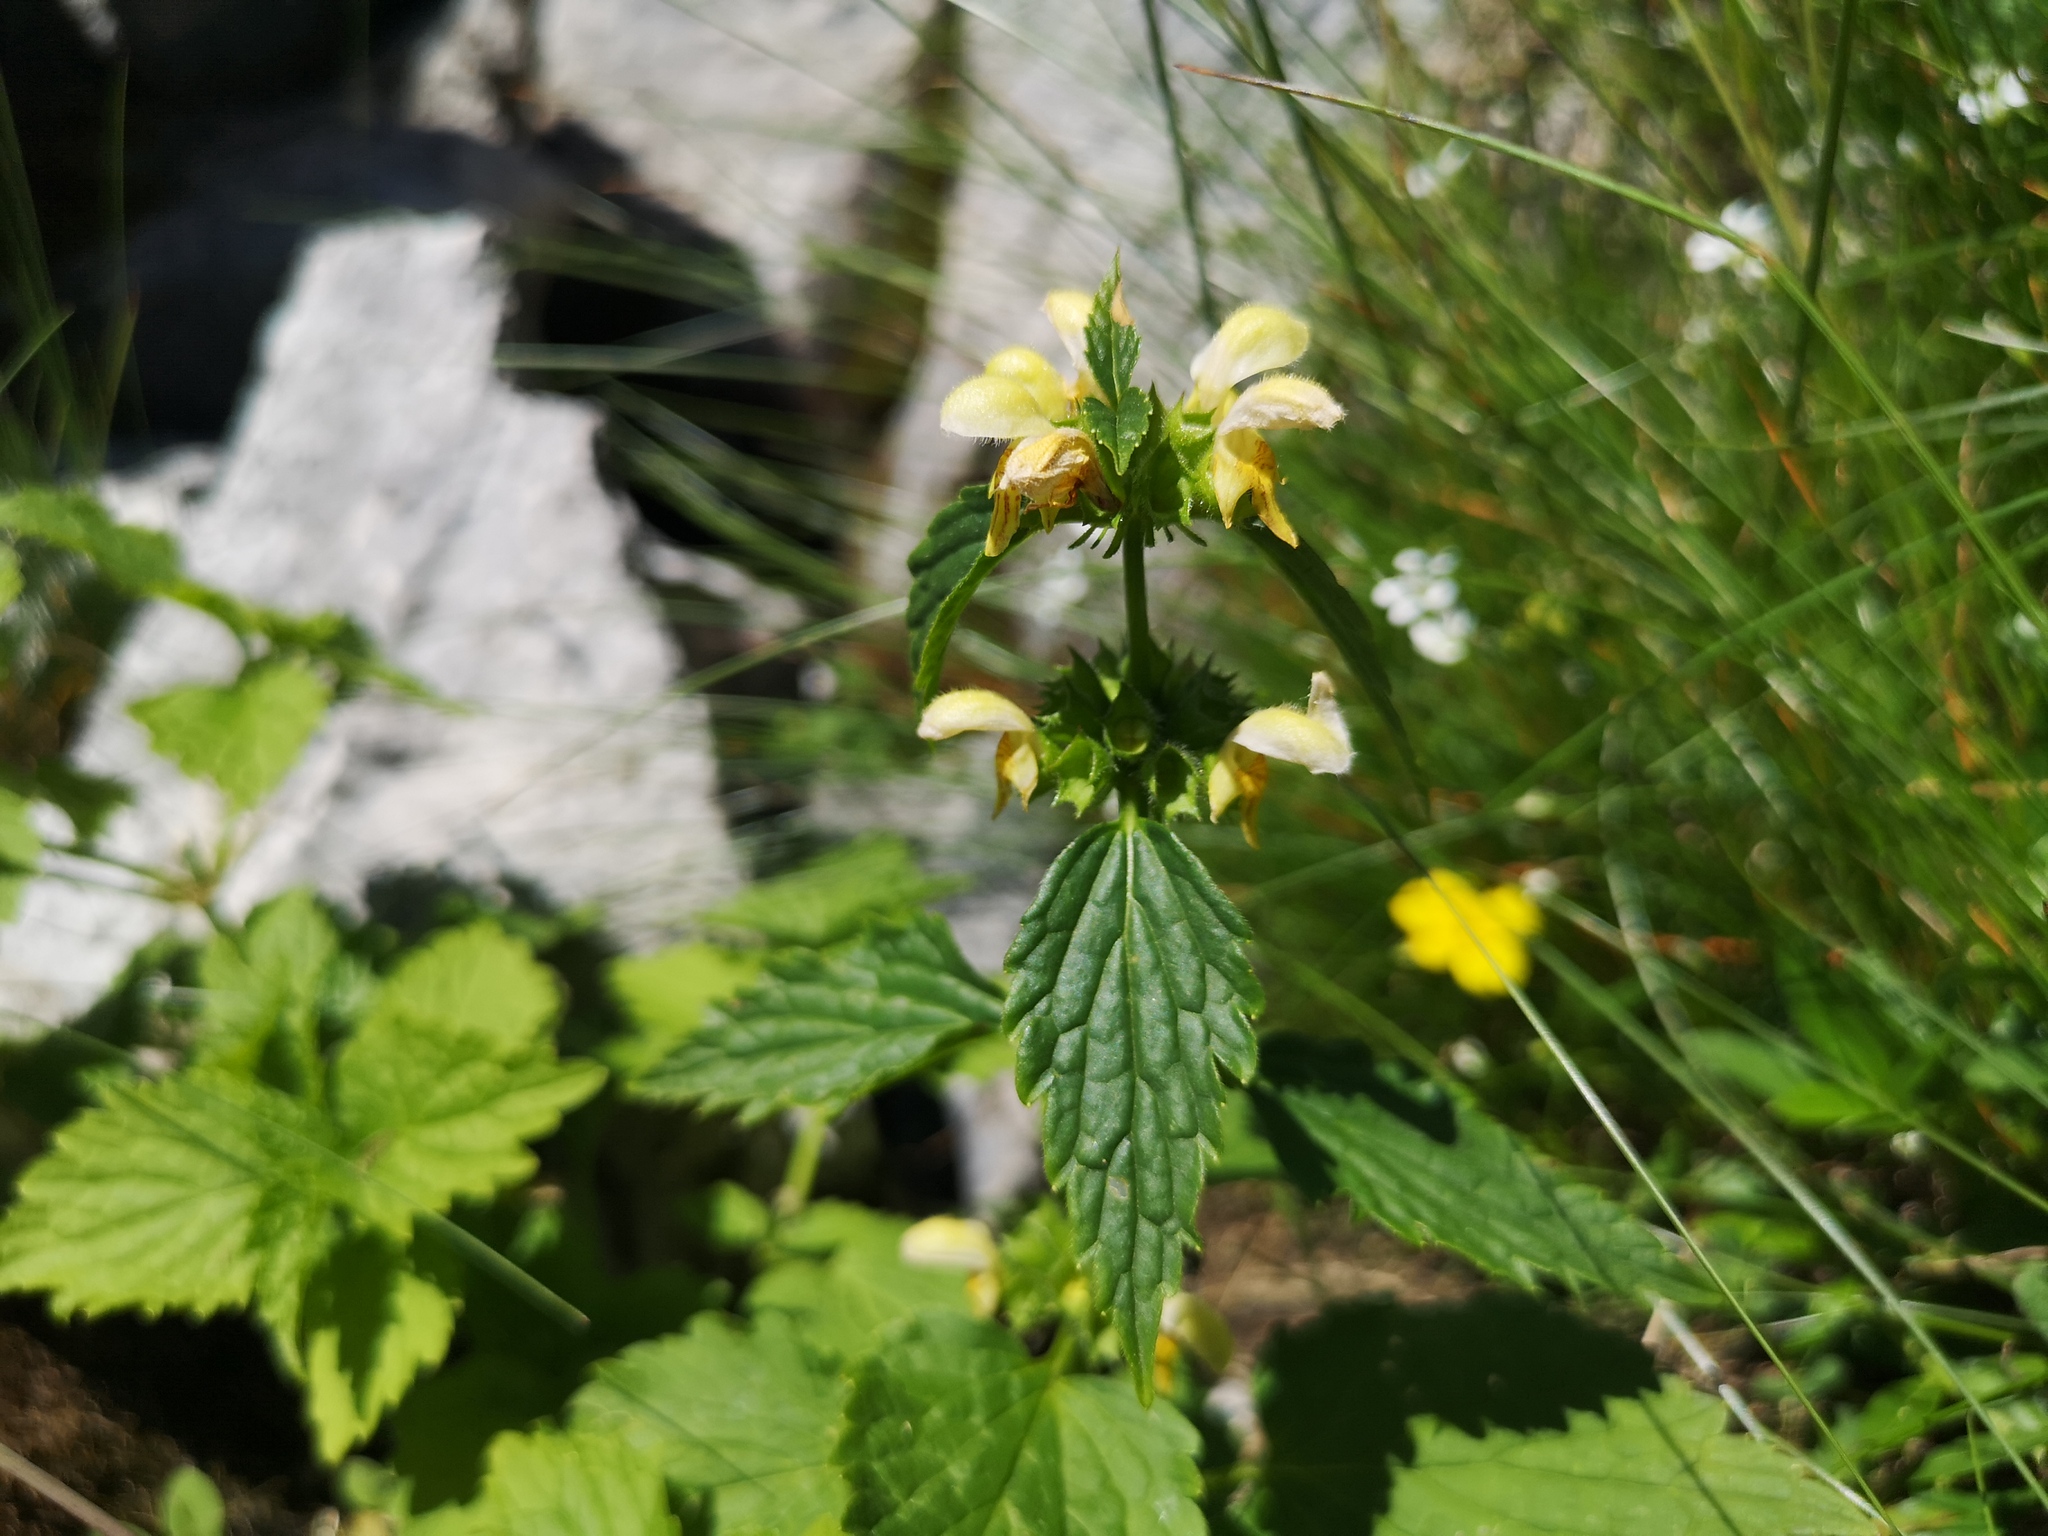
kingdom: Plantae
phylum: Tracheophyta
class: Magnoliopsida
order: Lamiales
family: Lamiaceae
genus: Lamium
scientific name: Lamium galeobdolon
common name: Yellow archangel
